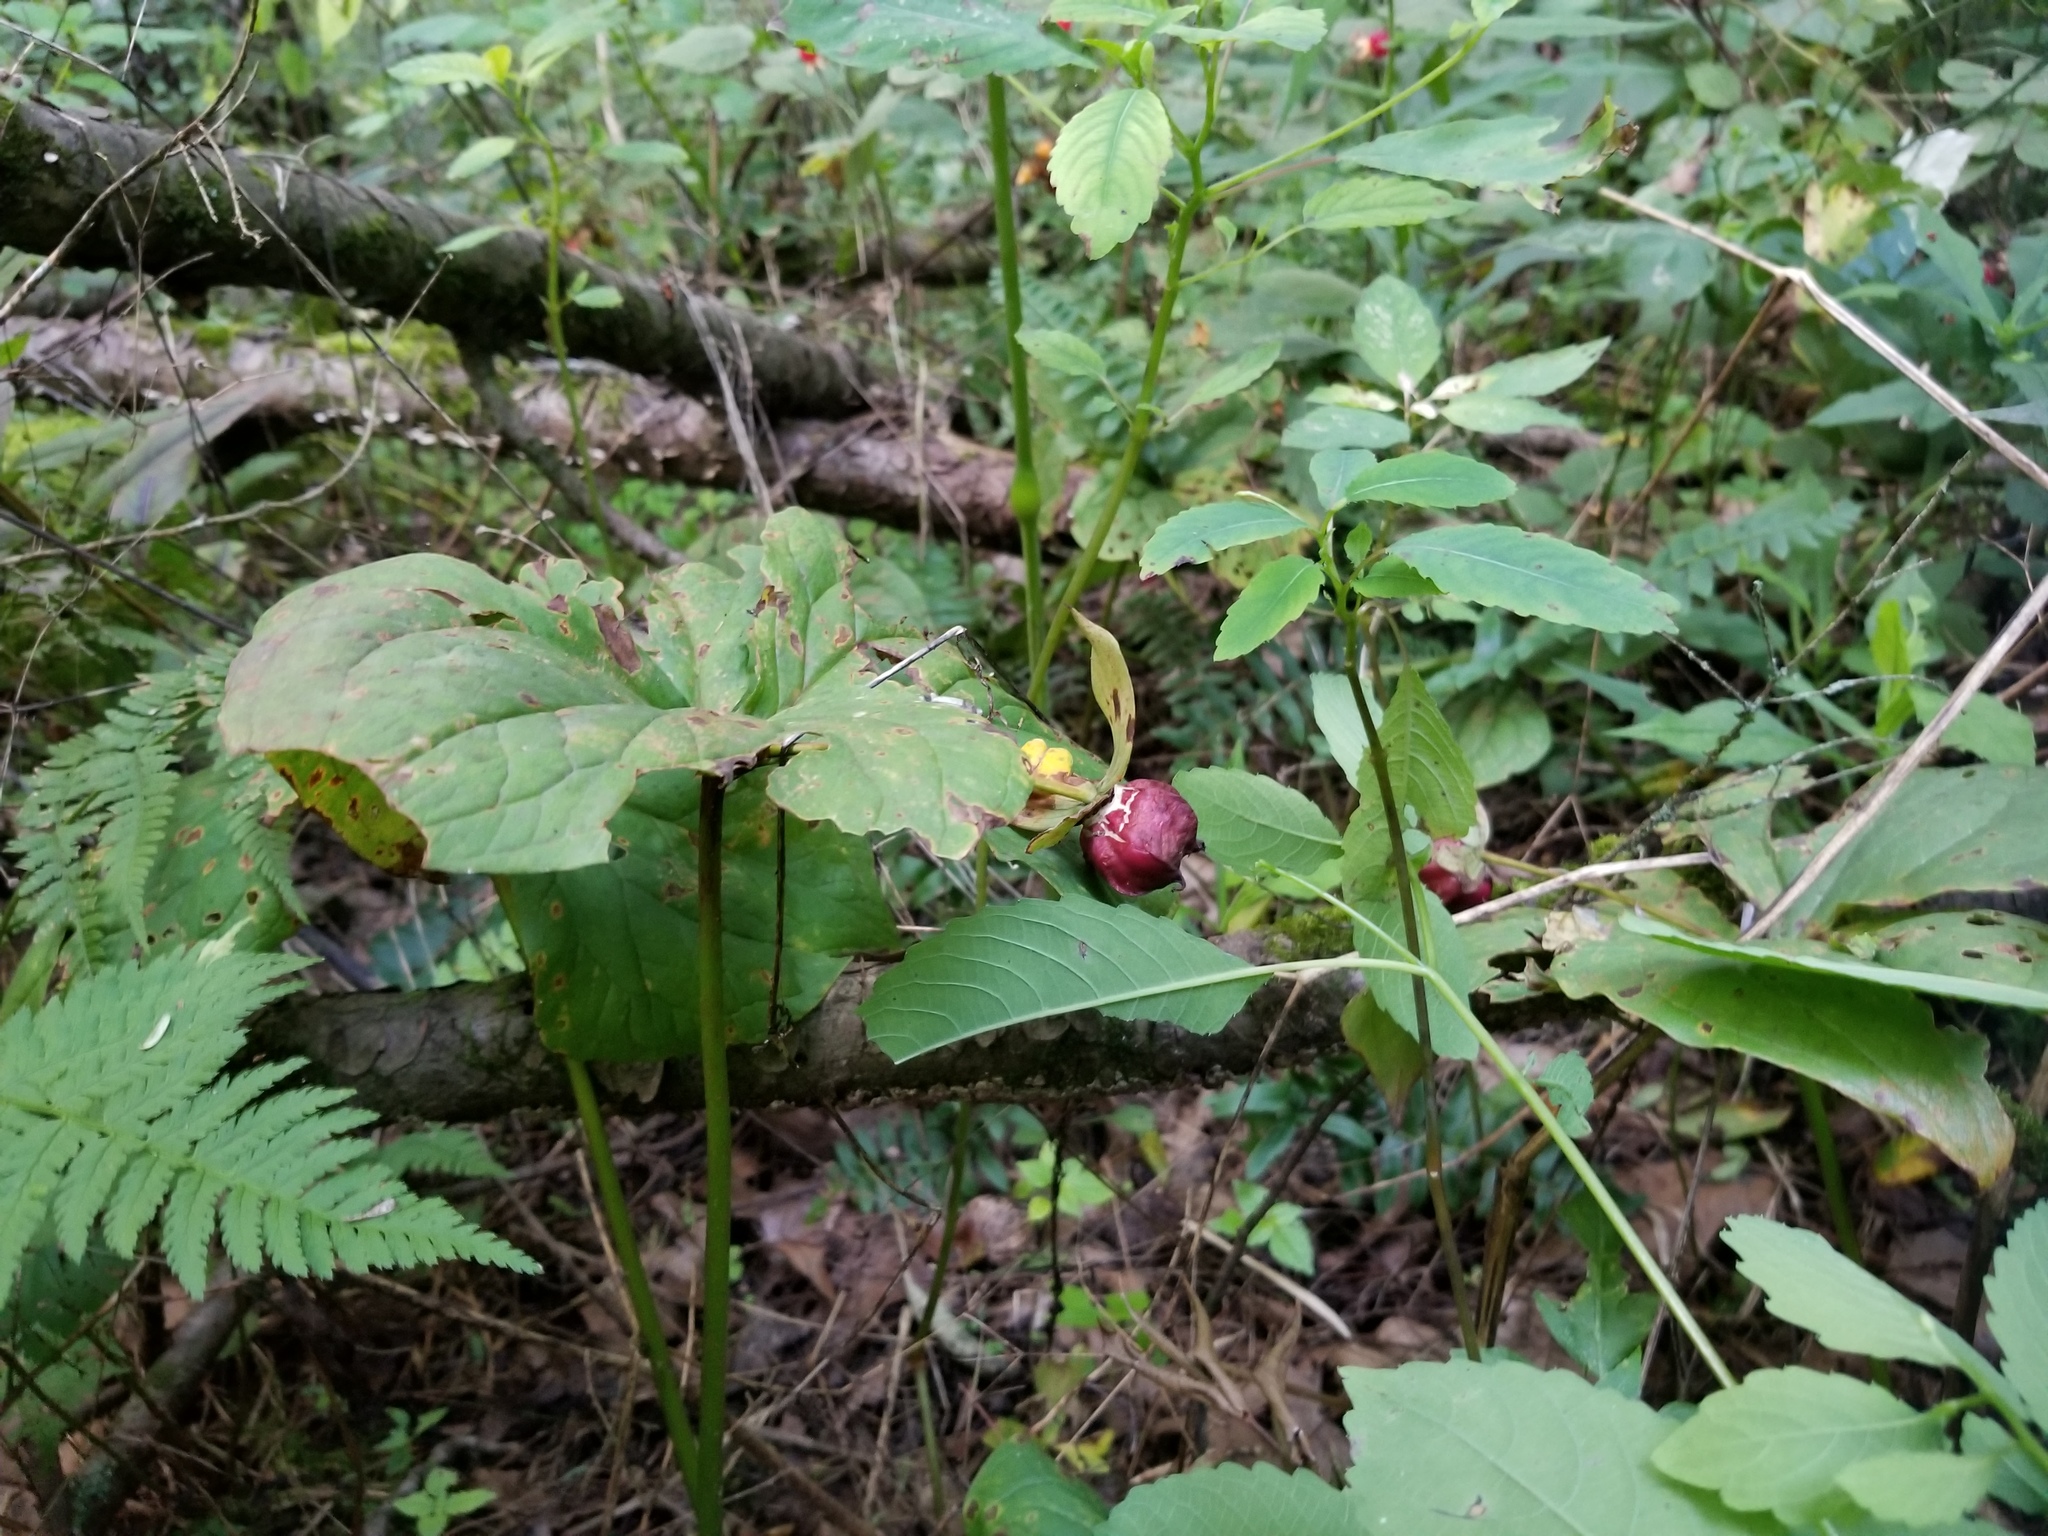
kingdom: Plantae
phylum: Tracheophyta
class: Liliopsida
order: Liliales
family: Melanthiaceae
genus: Trillium
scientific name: Trillium erectum
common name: Purple trillium
